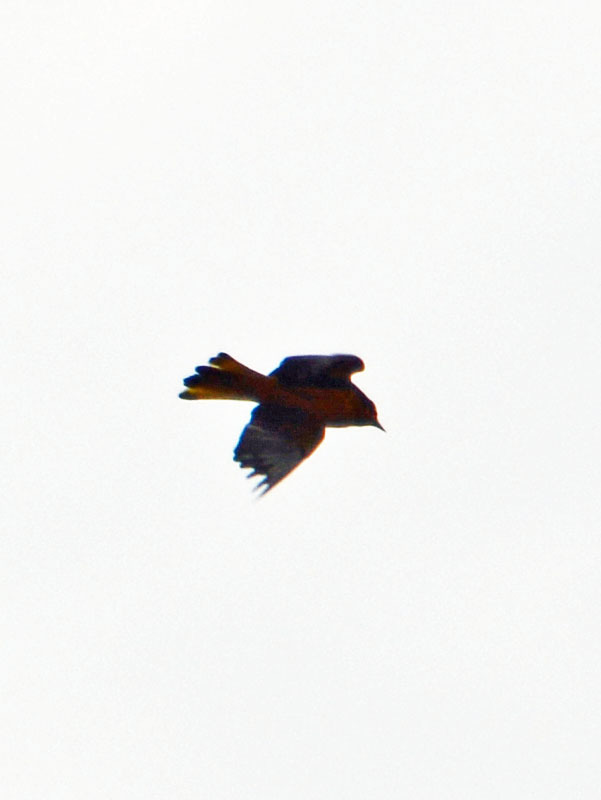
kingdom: Animalia
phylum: Chordata
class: Aves
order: Passeriformes
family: Icteridae
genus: Icterus
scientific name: Icterus abeillei
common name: Black-backed oriole
